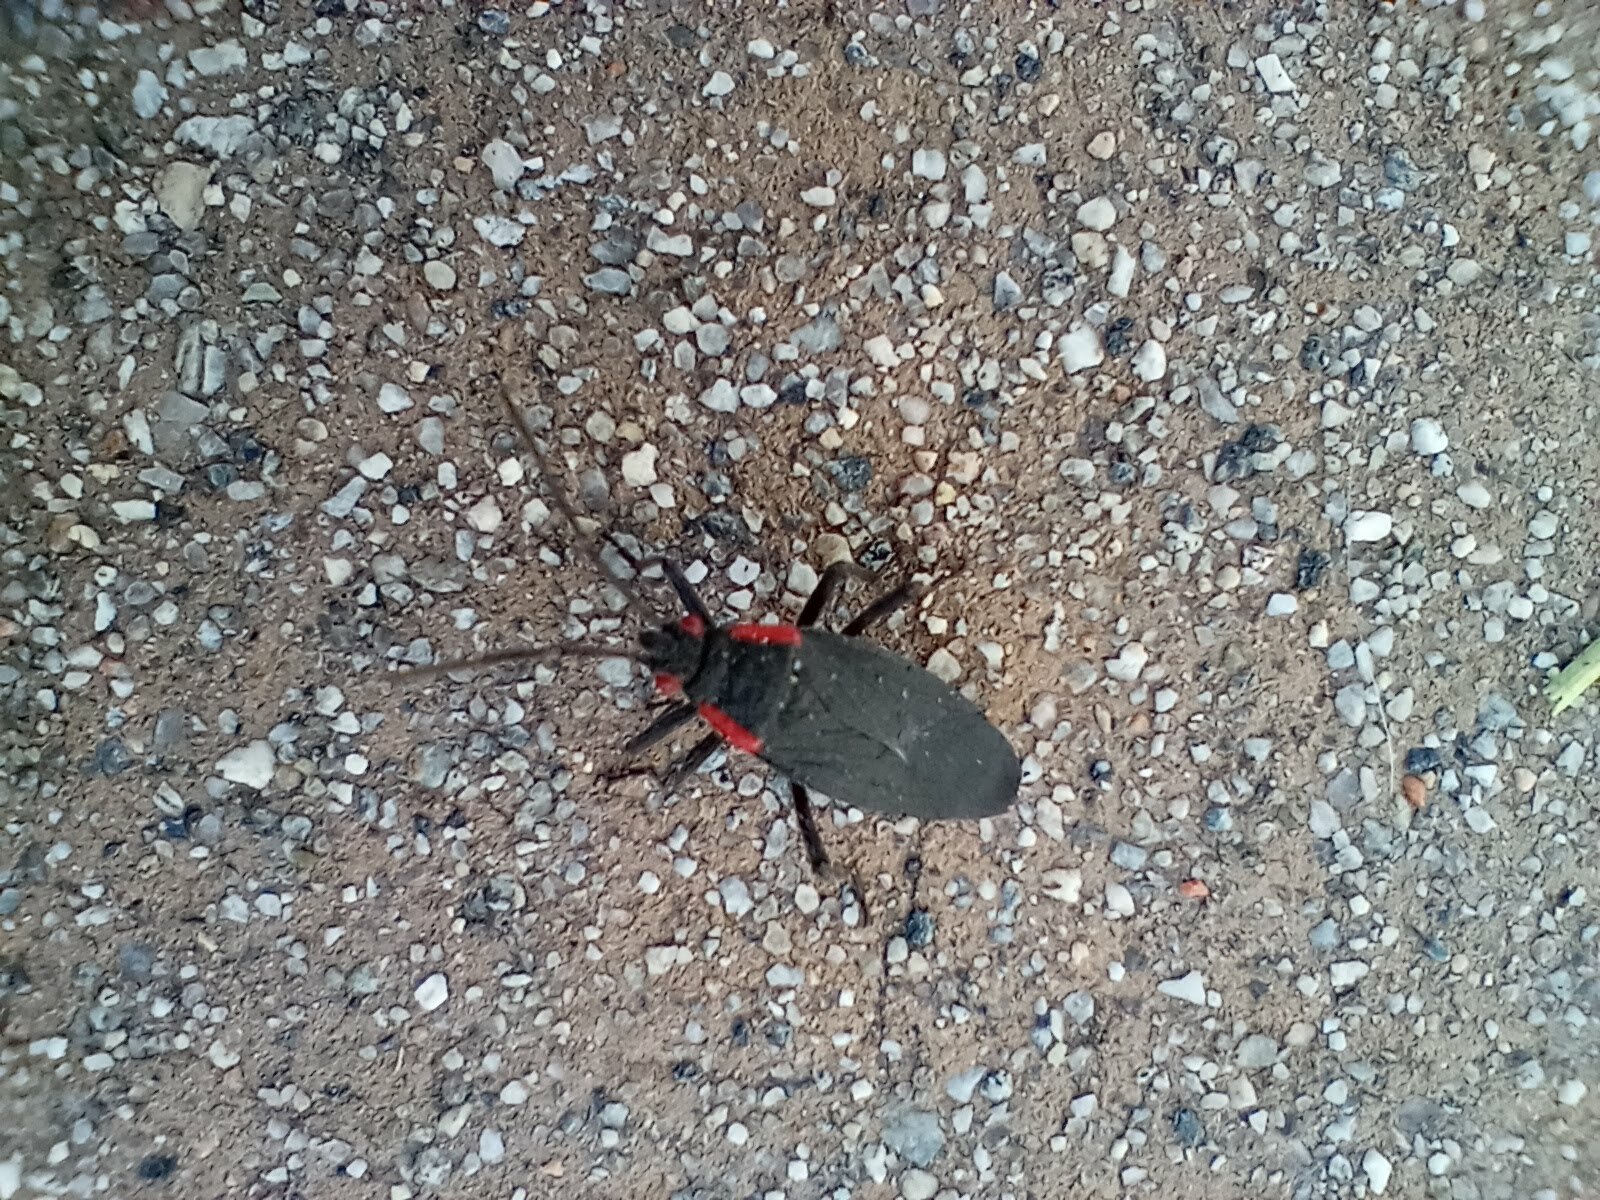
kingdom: Animalia
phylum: Arthropoda
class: Insecta
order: Hemiptera
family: Rhopalidae
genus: Jadera
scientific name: Jadera haematoloma
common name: Red-shouldered bug
